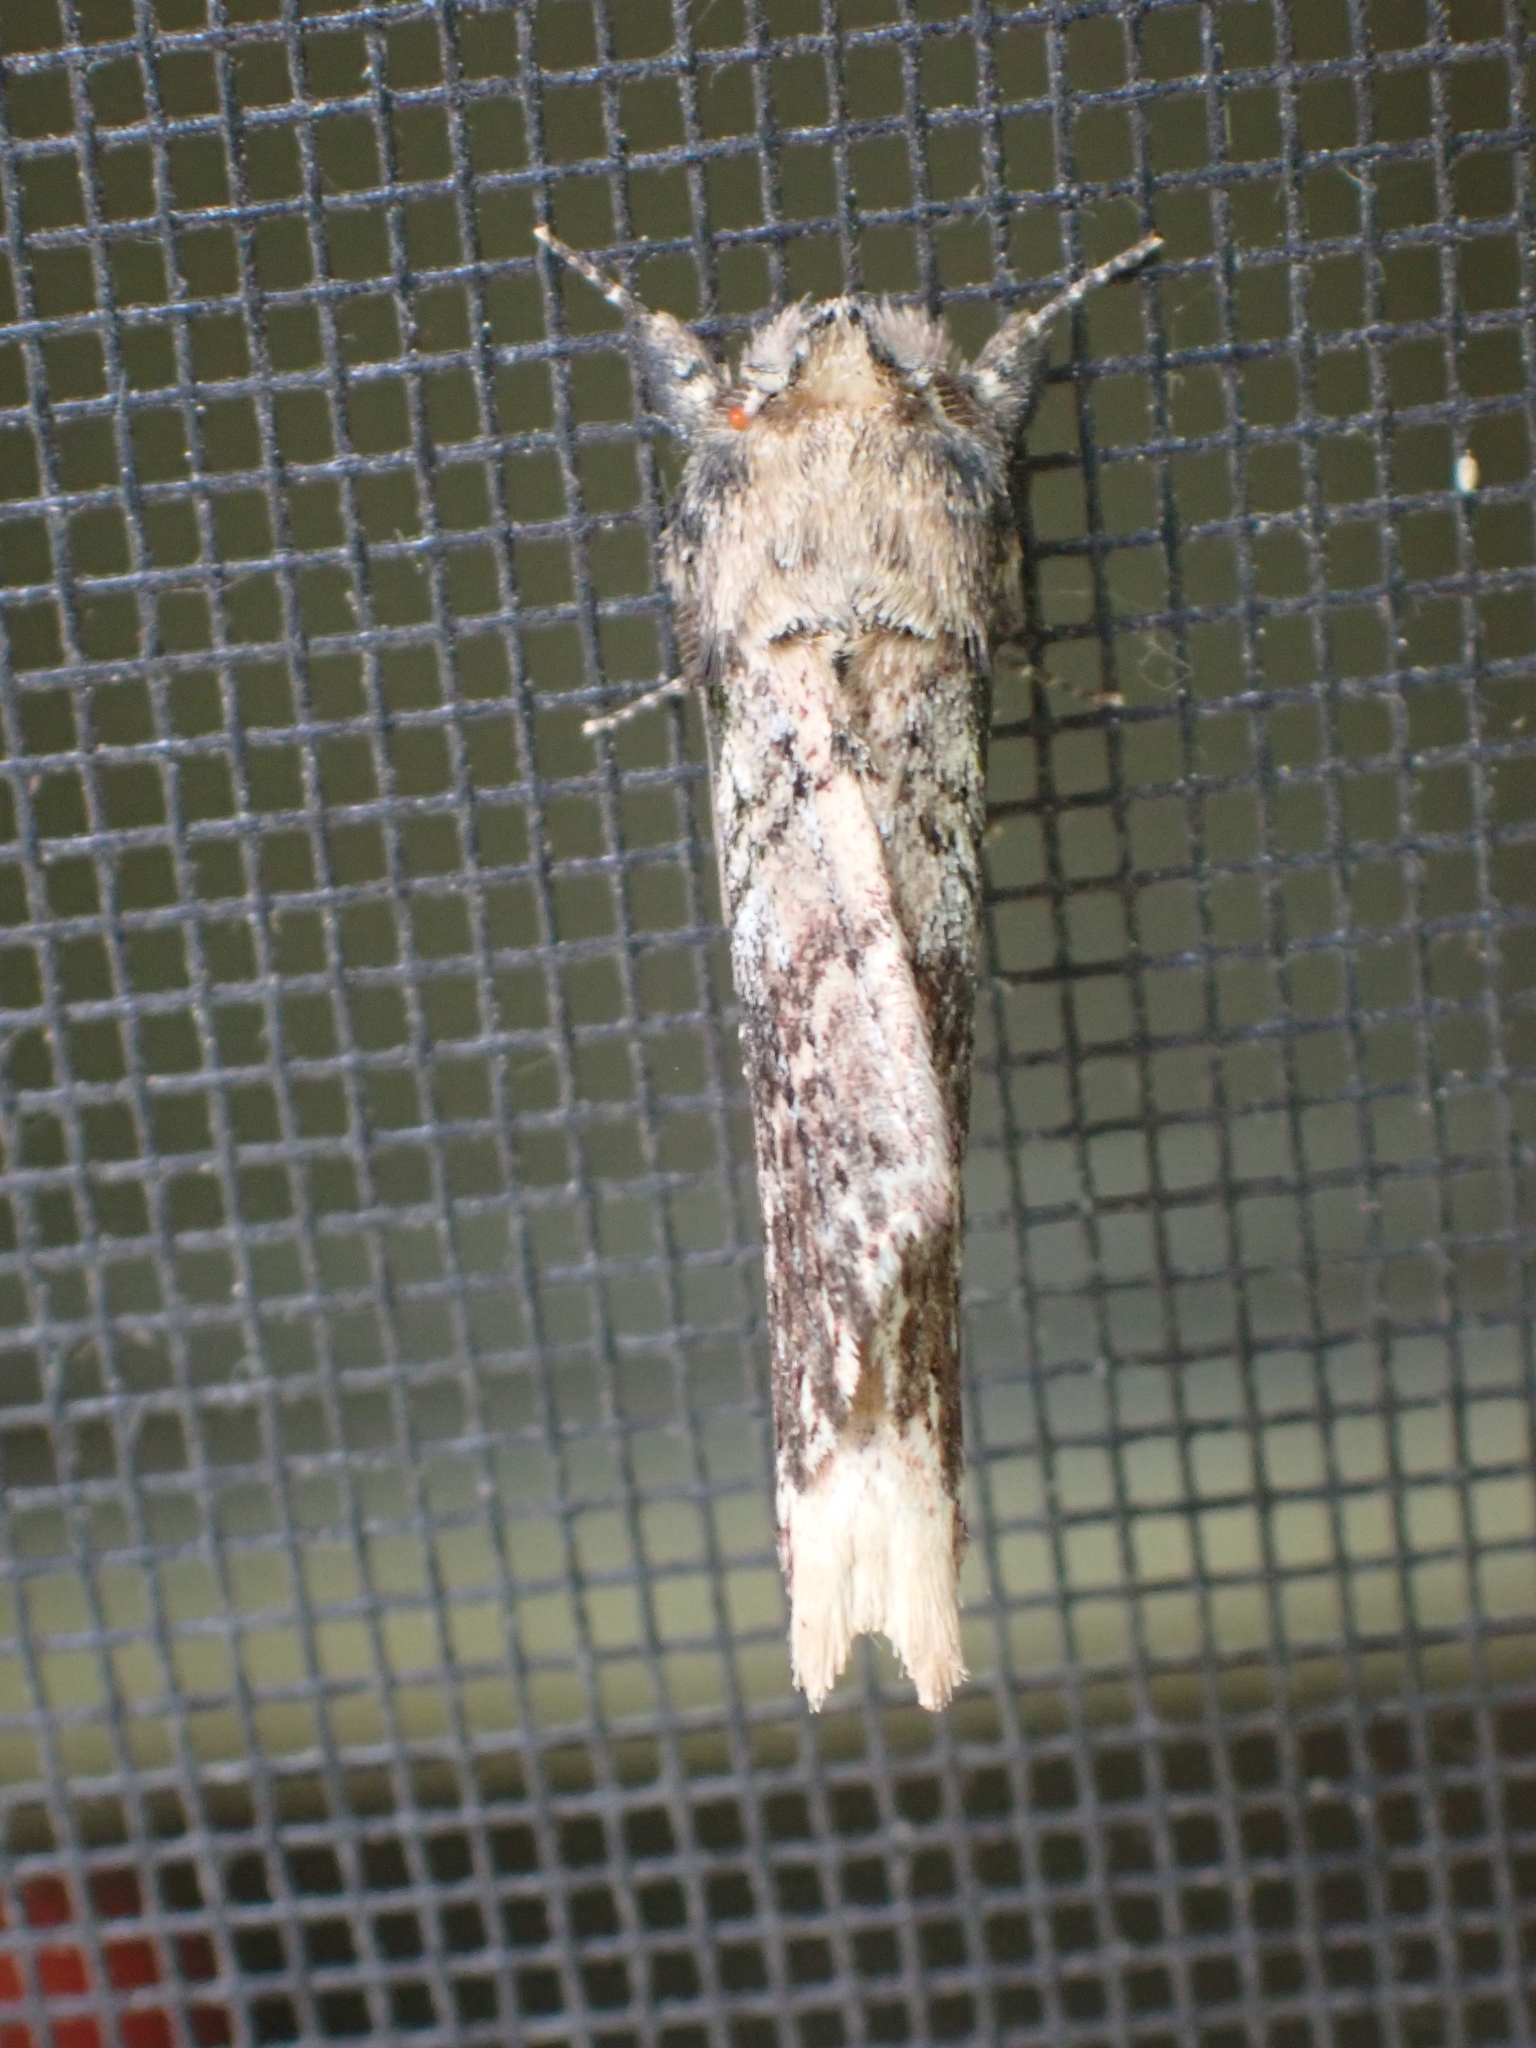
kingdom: Animalia
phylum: Arthropoda
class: Insecta
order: Lepidoptera
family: Notodontidae
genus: Schizura
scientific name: Schizura ipomaeae
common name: Morning-glory prominent
